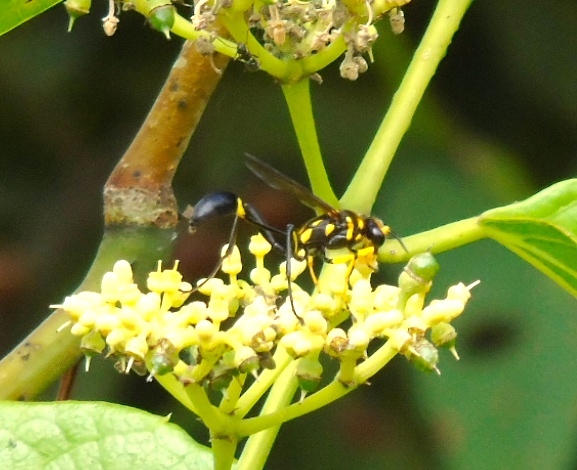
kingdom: Animalia
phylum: Arthropoda
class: Insecta
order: Hymenoptera
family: Sphecidae
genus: Sceliphron
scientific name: Sceliphron fistularium
